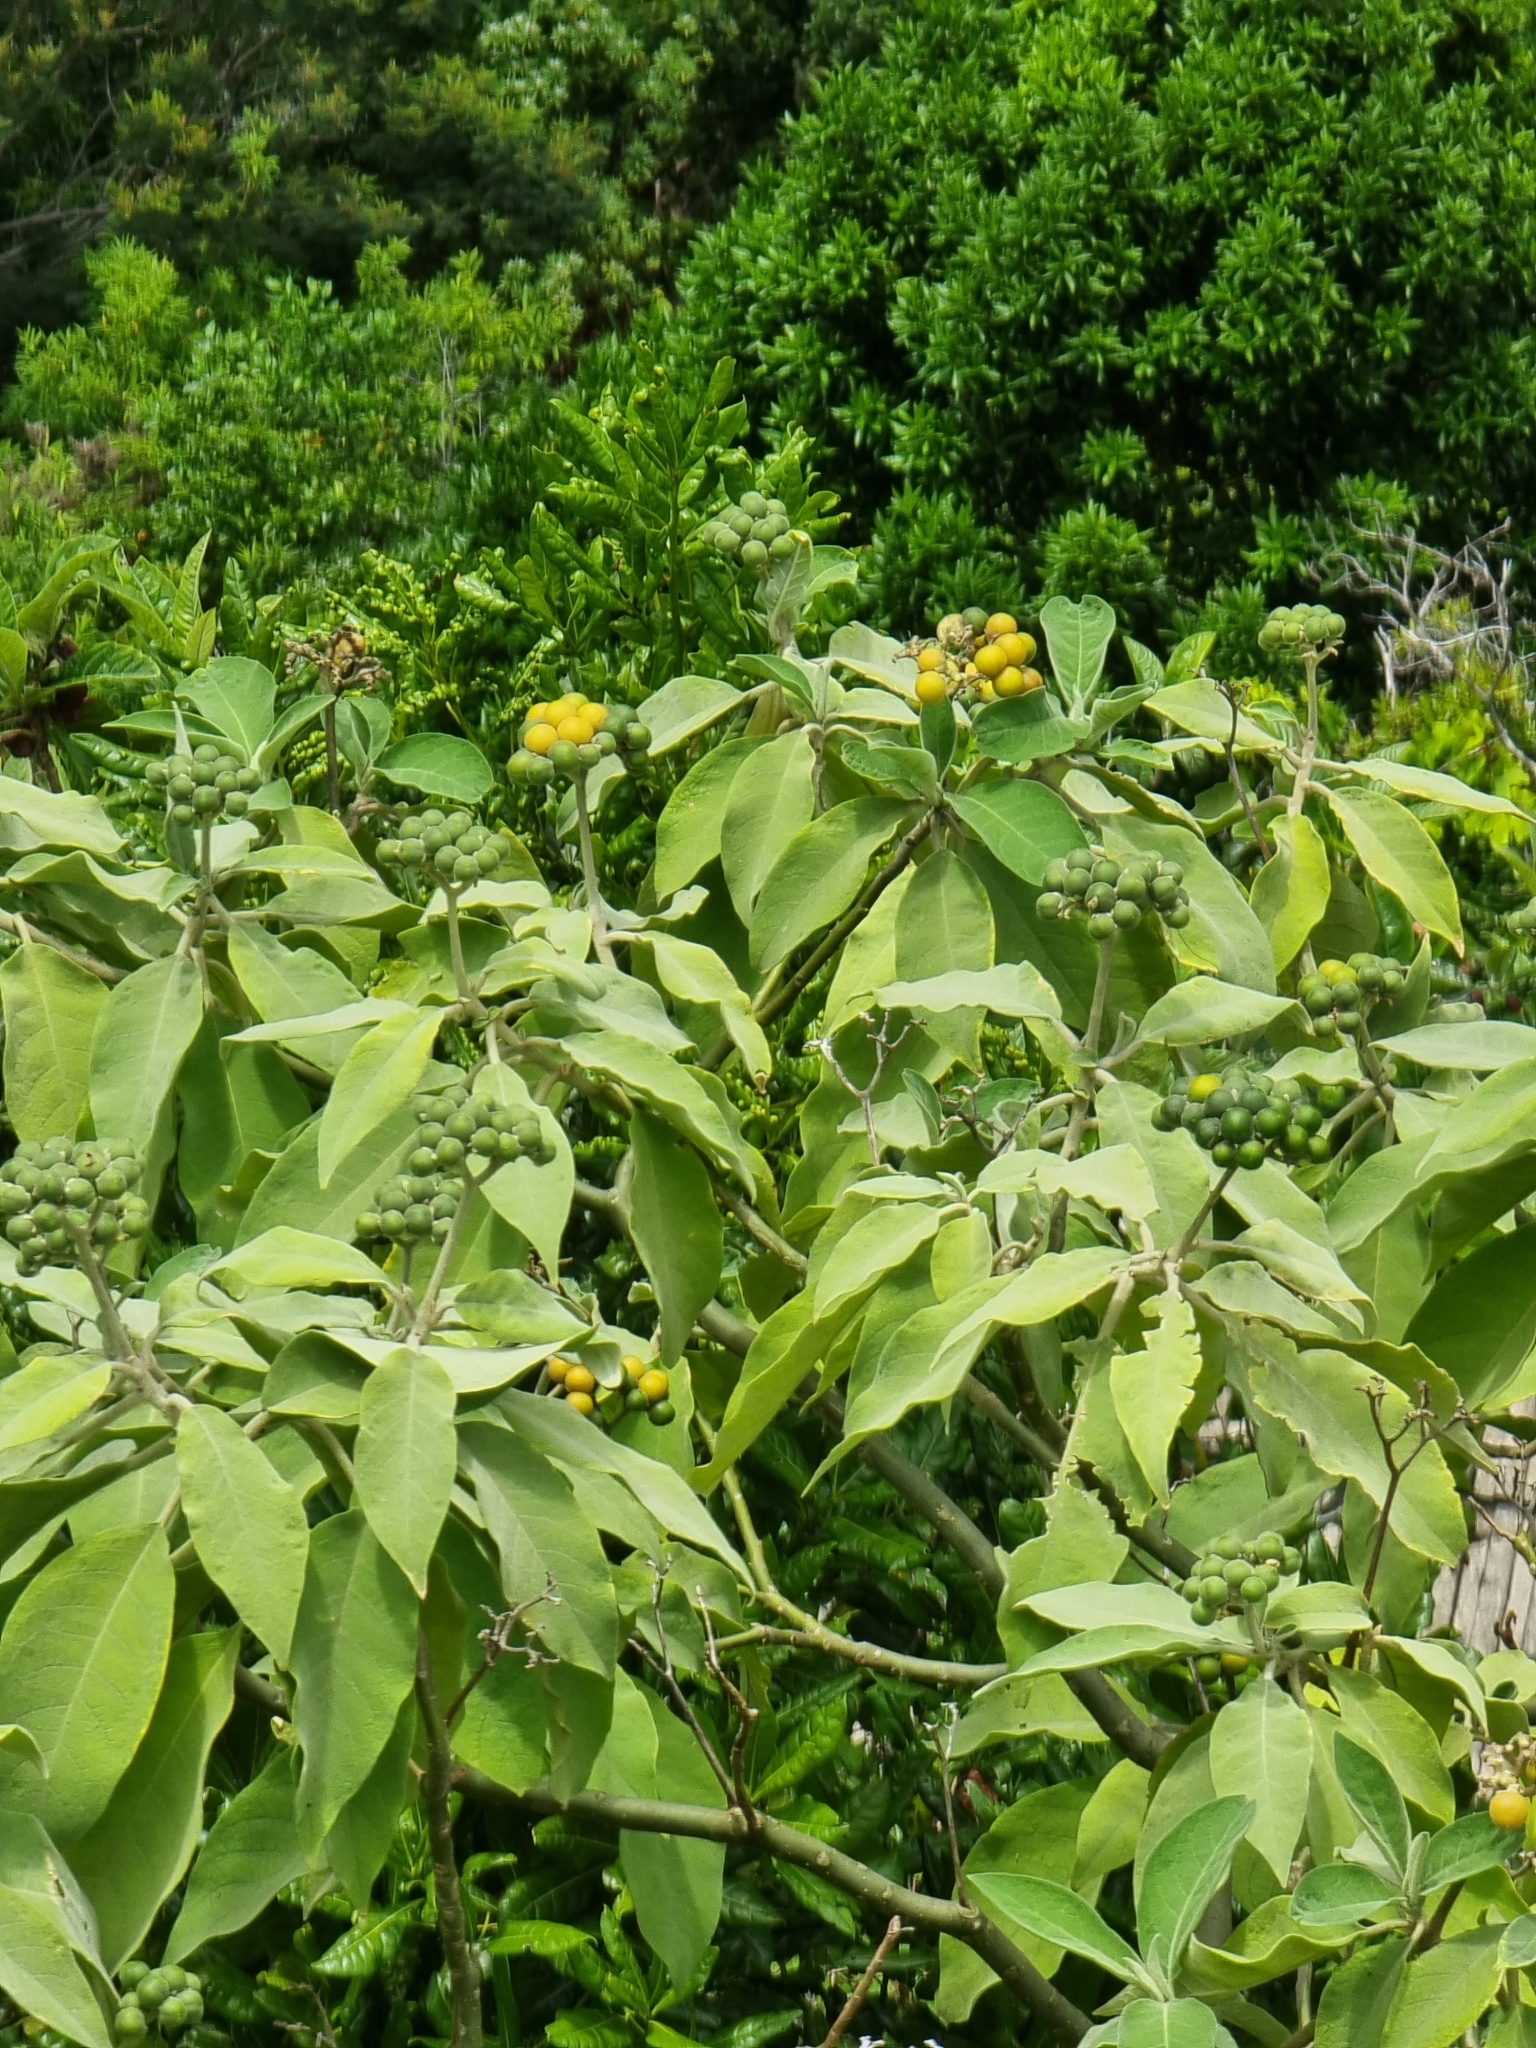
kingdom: Plantae
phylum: Tracheophyta
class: Magnoliopsida
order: Solanales
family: Solanaceae
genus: Solanum
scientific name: Solanum mauritianum
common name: Earleaf nightshade
